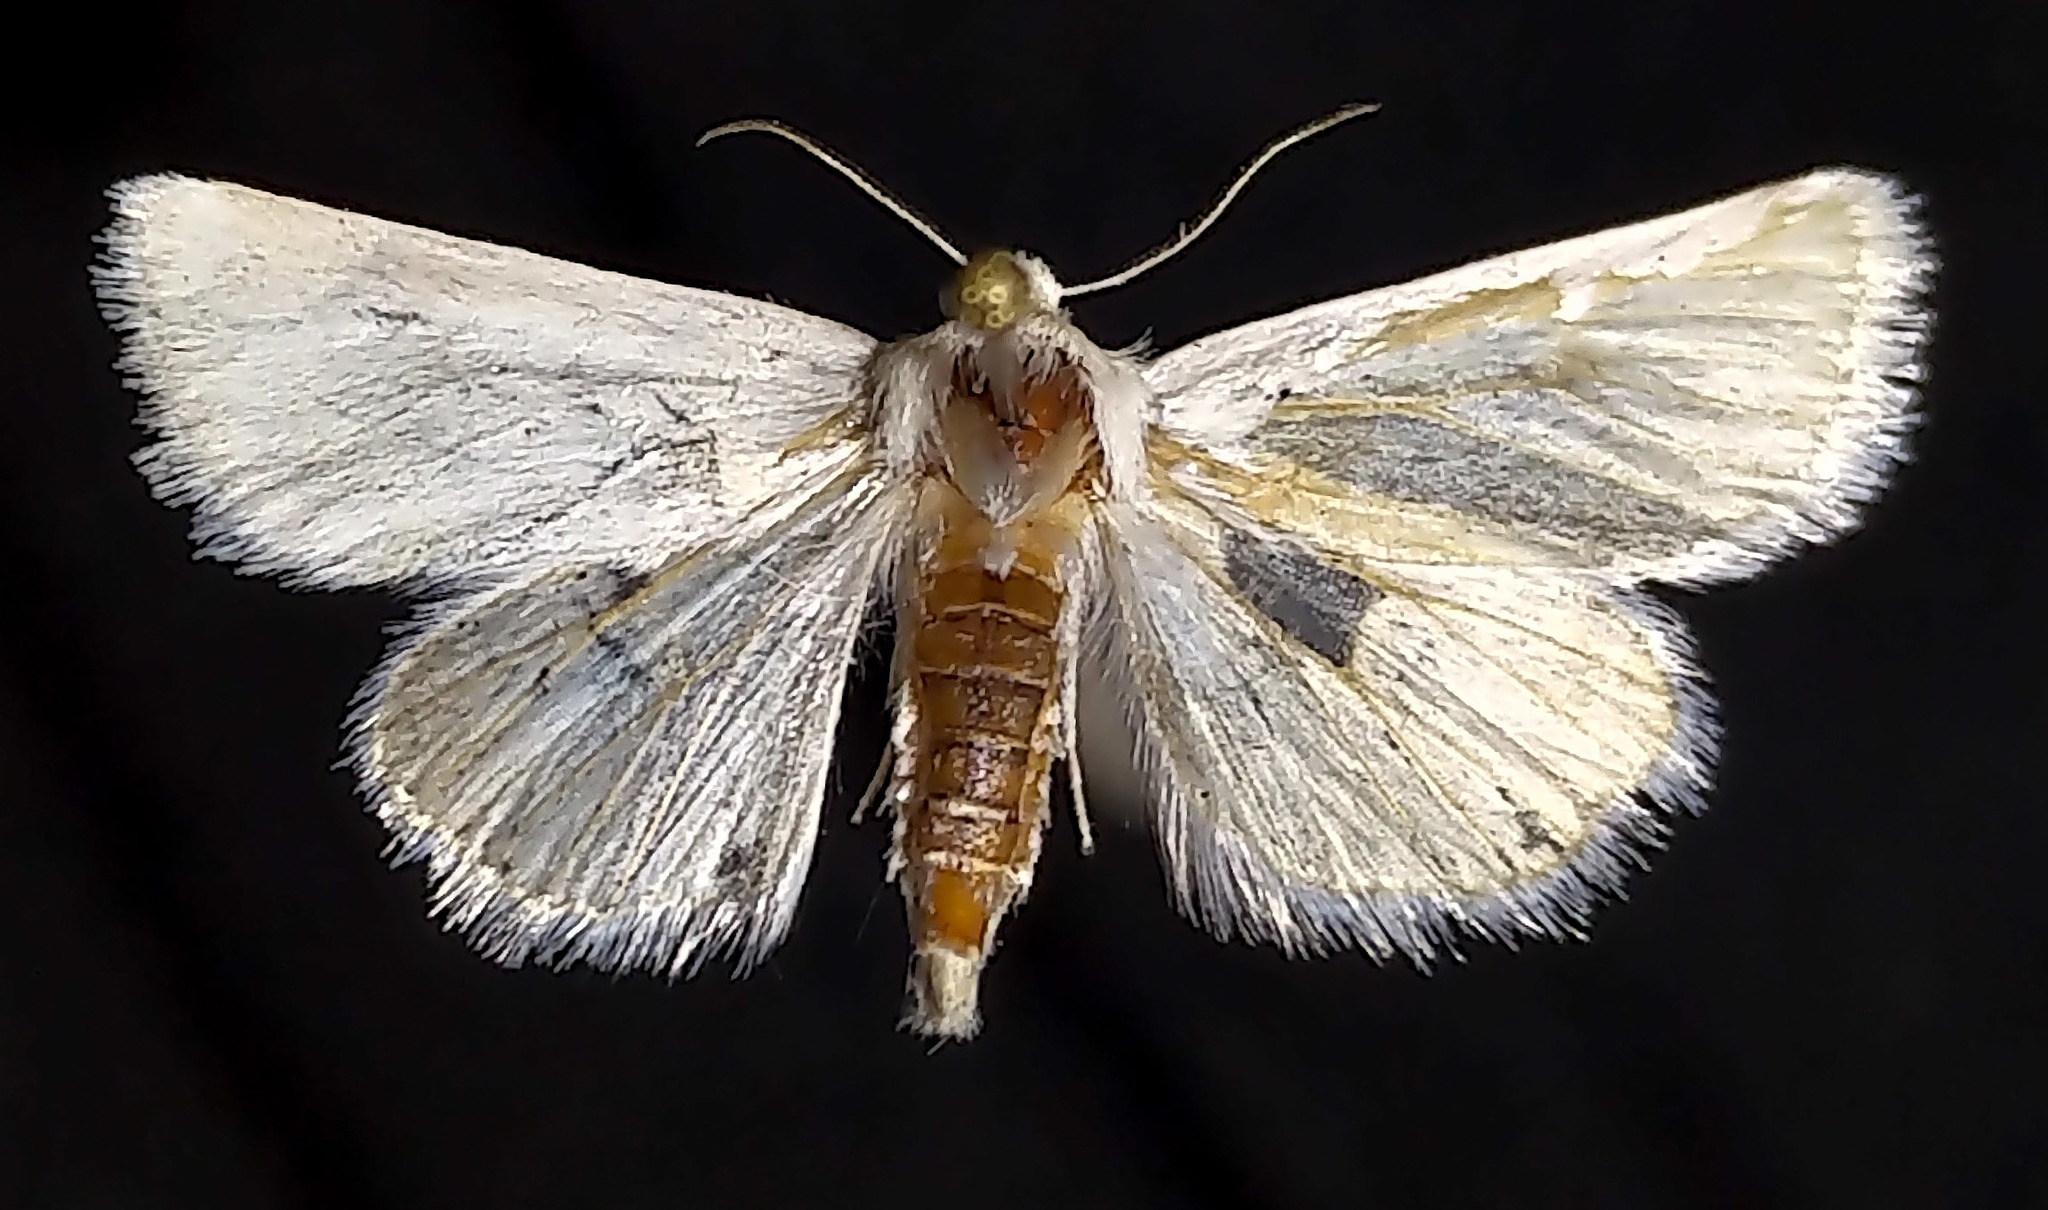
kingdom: Animalia
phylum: Arthropoda
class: Insecta
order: Lepidoptera
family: Noctuidae
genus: Schinia
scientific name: Schinia acutilinea
